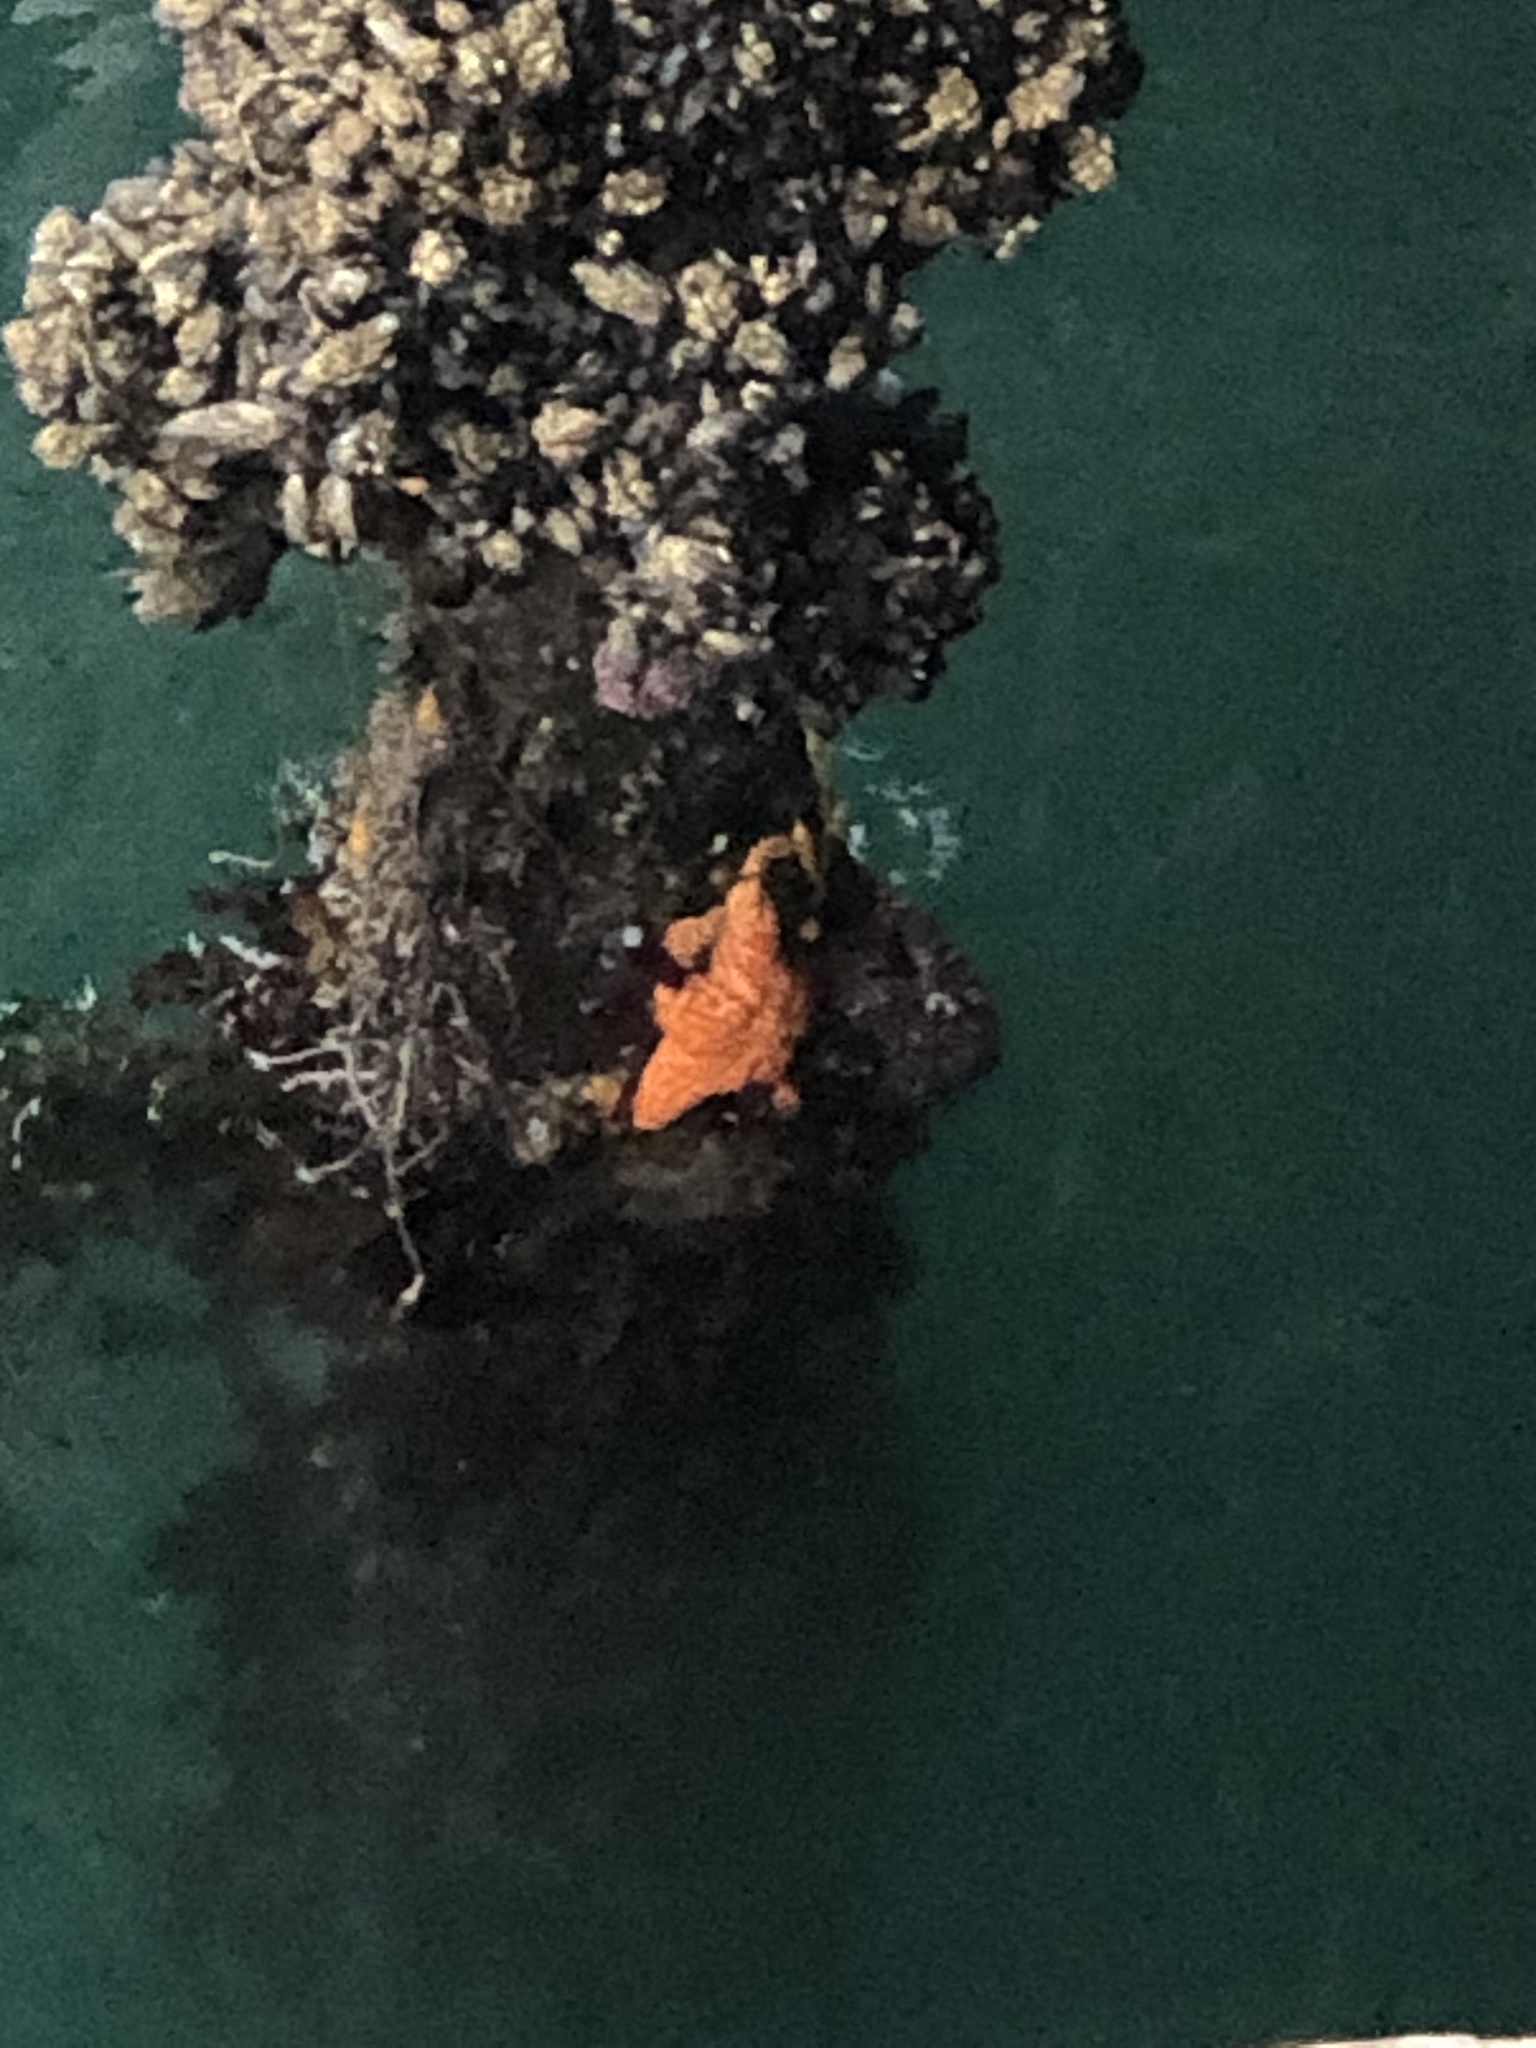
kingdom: Animalia
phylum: Echinodermata
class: Asteroidea
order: Forcipulatida
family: Asteriidae
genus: Pisaster
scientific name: Pisaster ochraceus
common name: Ochre stars
